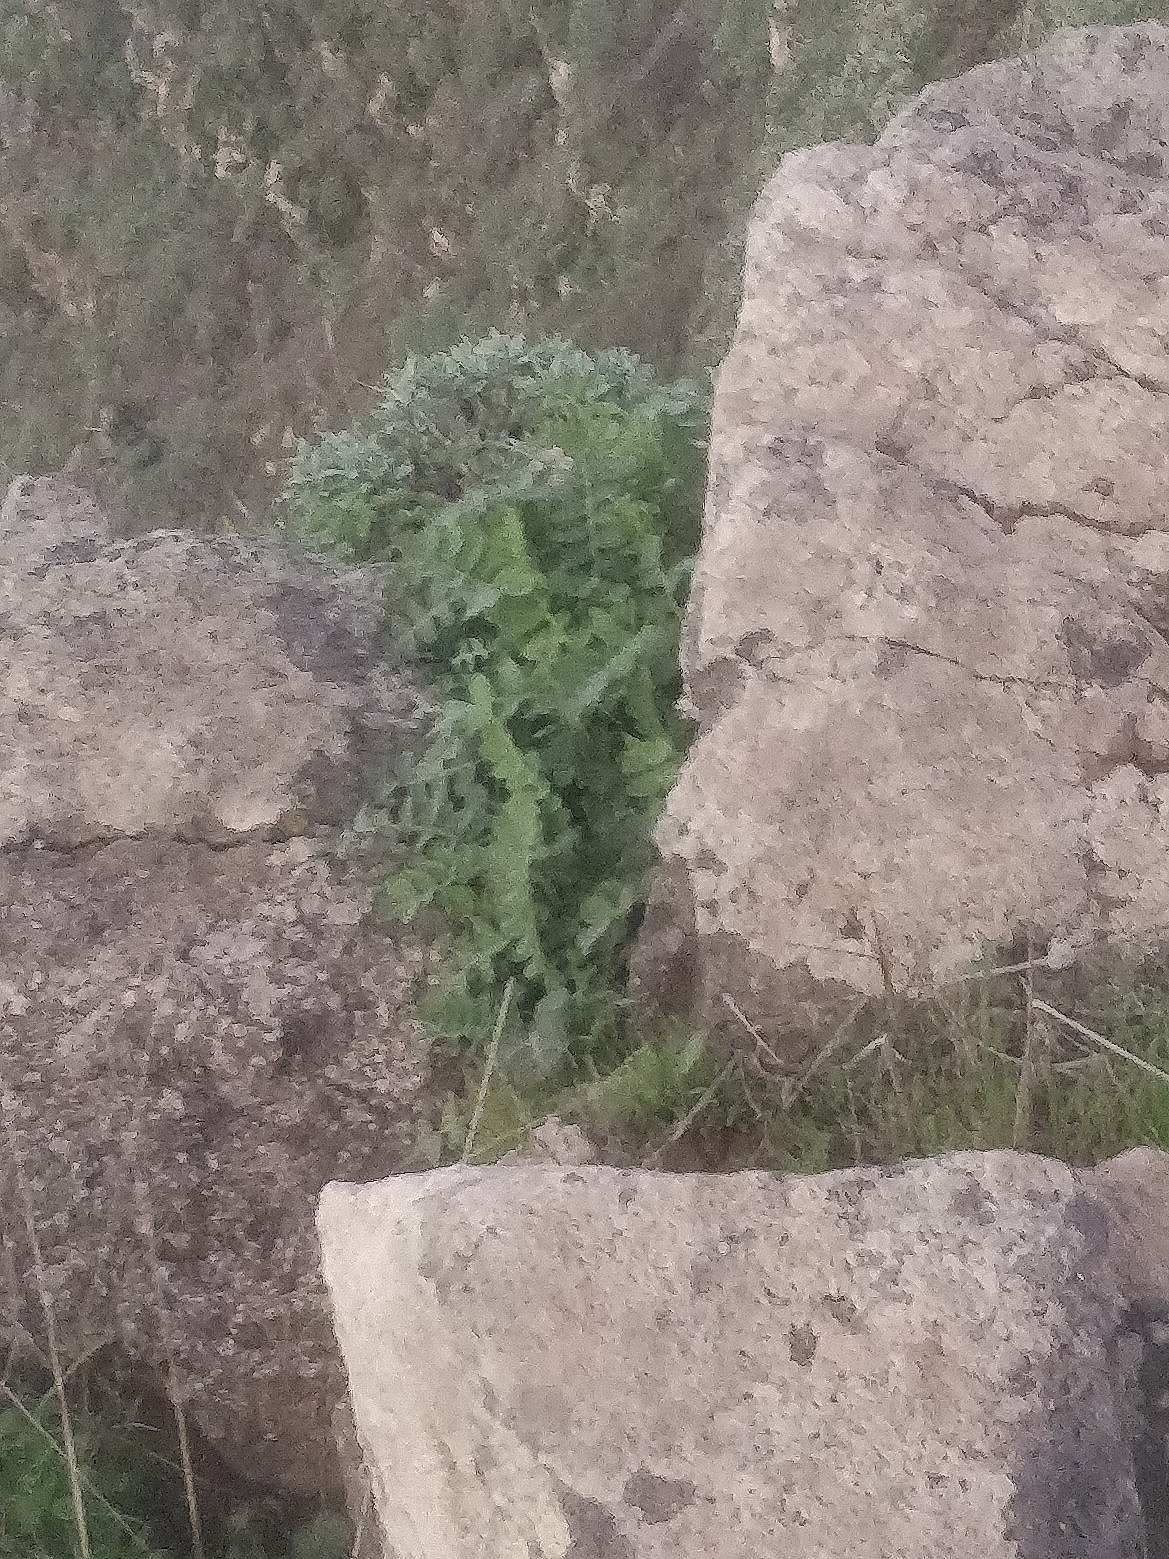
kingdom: Plantae
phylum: Tracheophyta
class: Magnoliopsida
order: Asterales
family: Asteraceae
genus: Sonchus
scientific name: Sonchus latifolius
